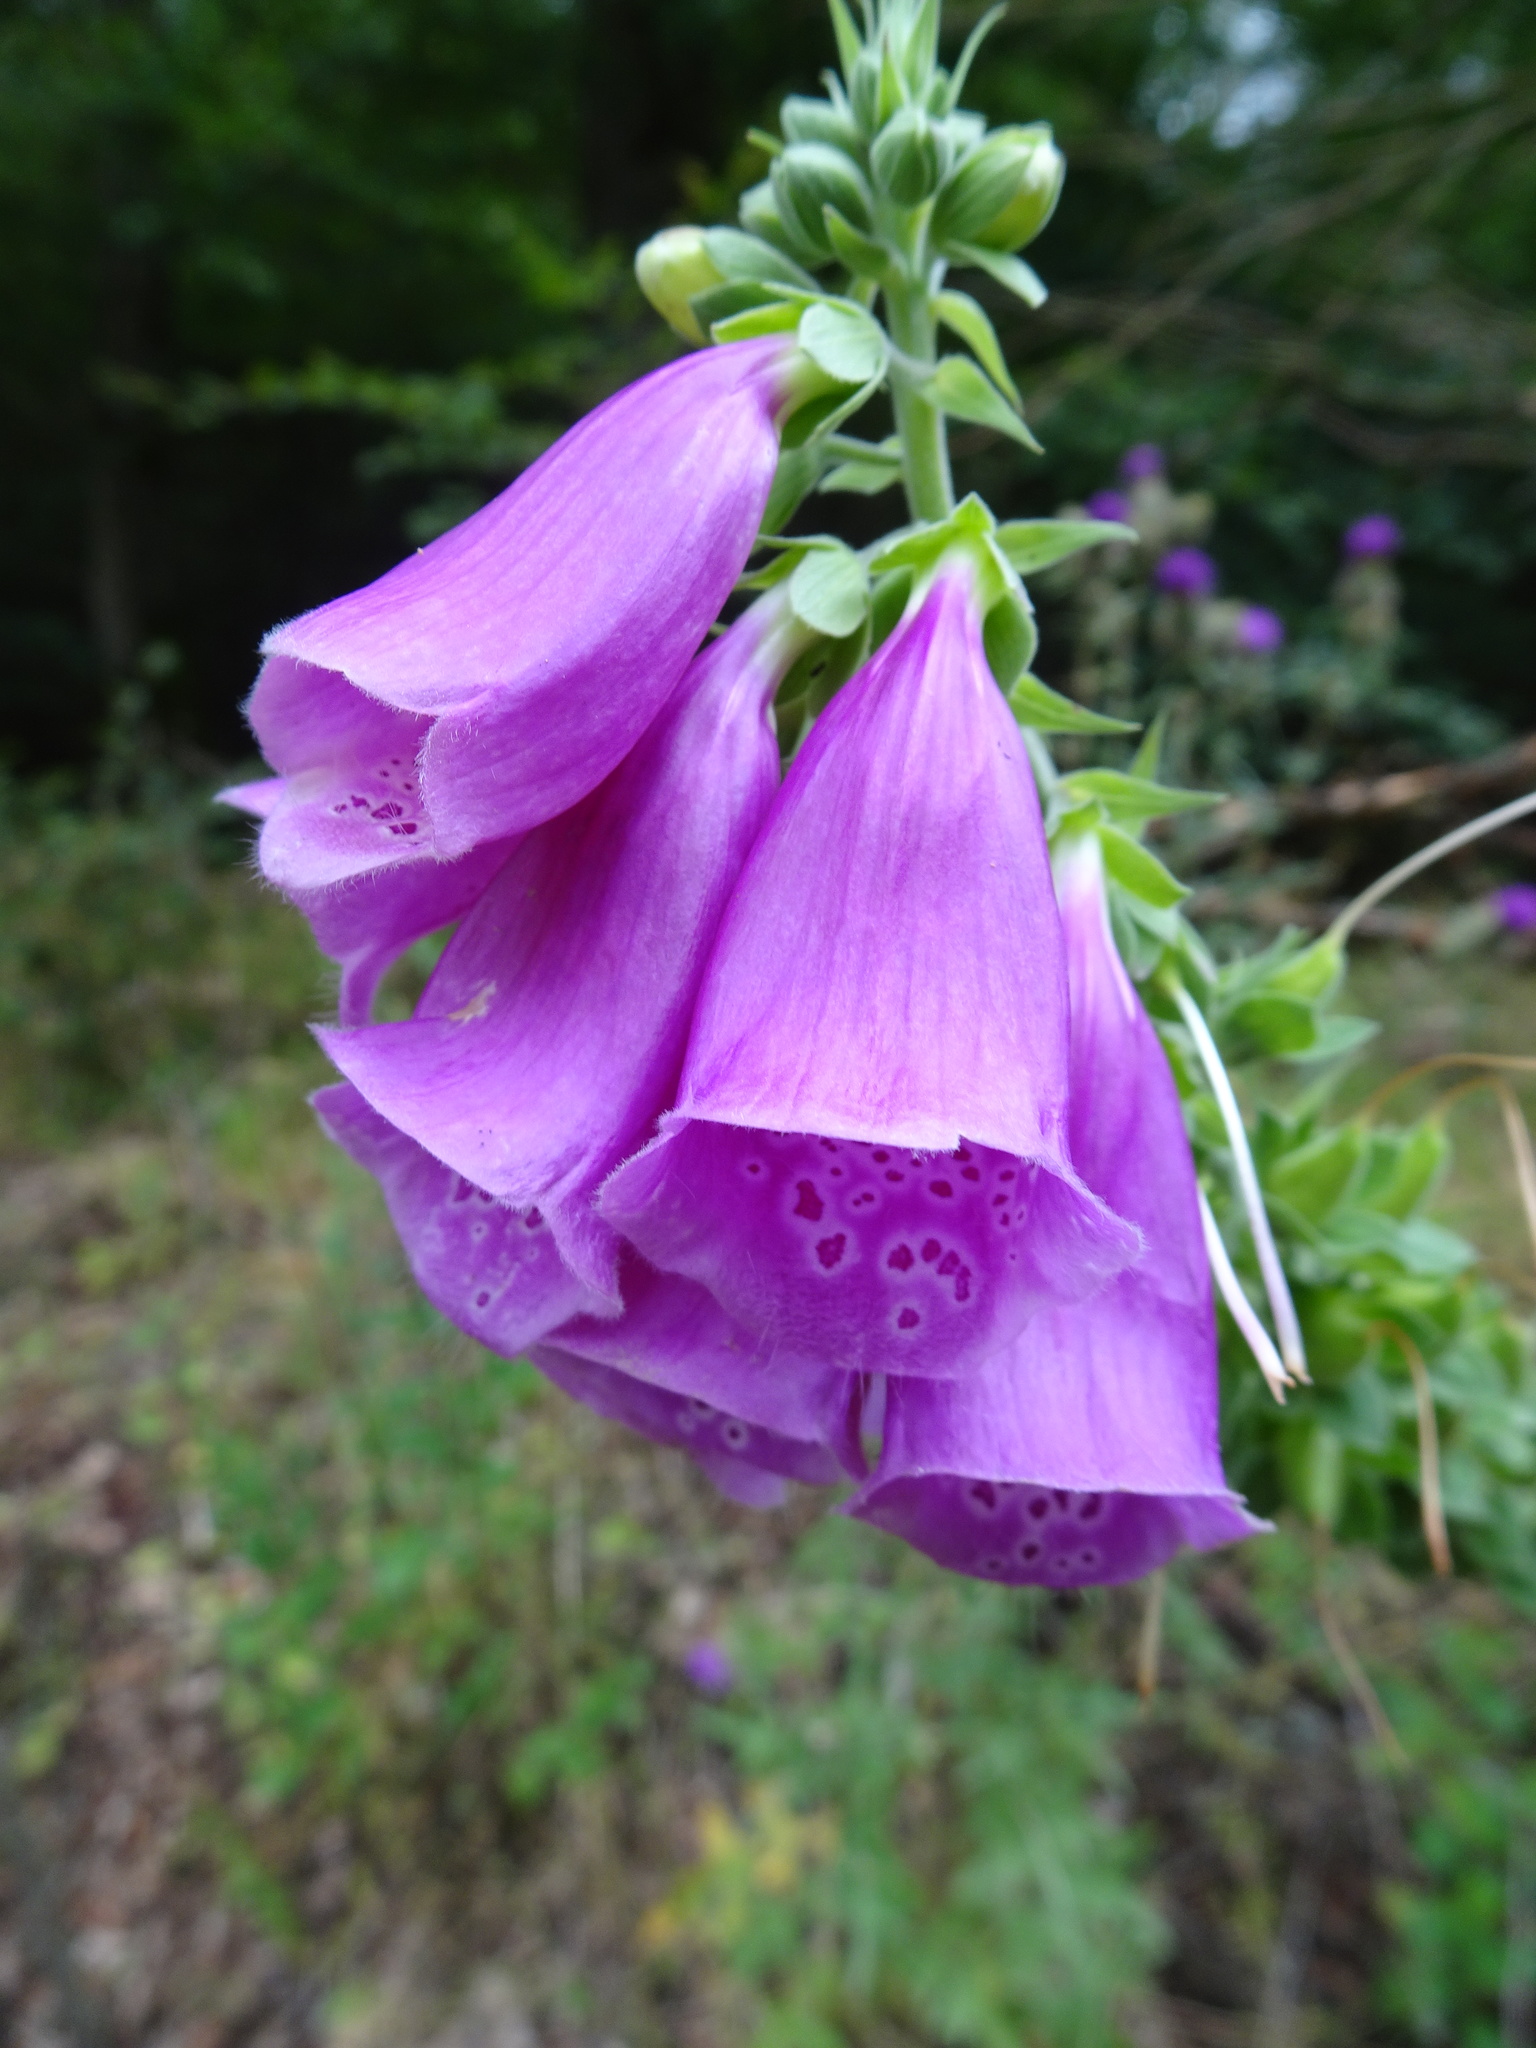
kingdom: Plantae
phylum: Tracheophyta
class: Magnoliopsida
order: Lamiales
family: Plantaginaceae
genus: Digitalis
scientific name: Digitalis purpurea
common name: Foxglove
